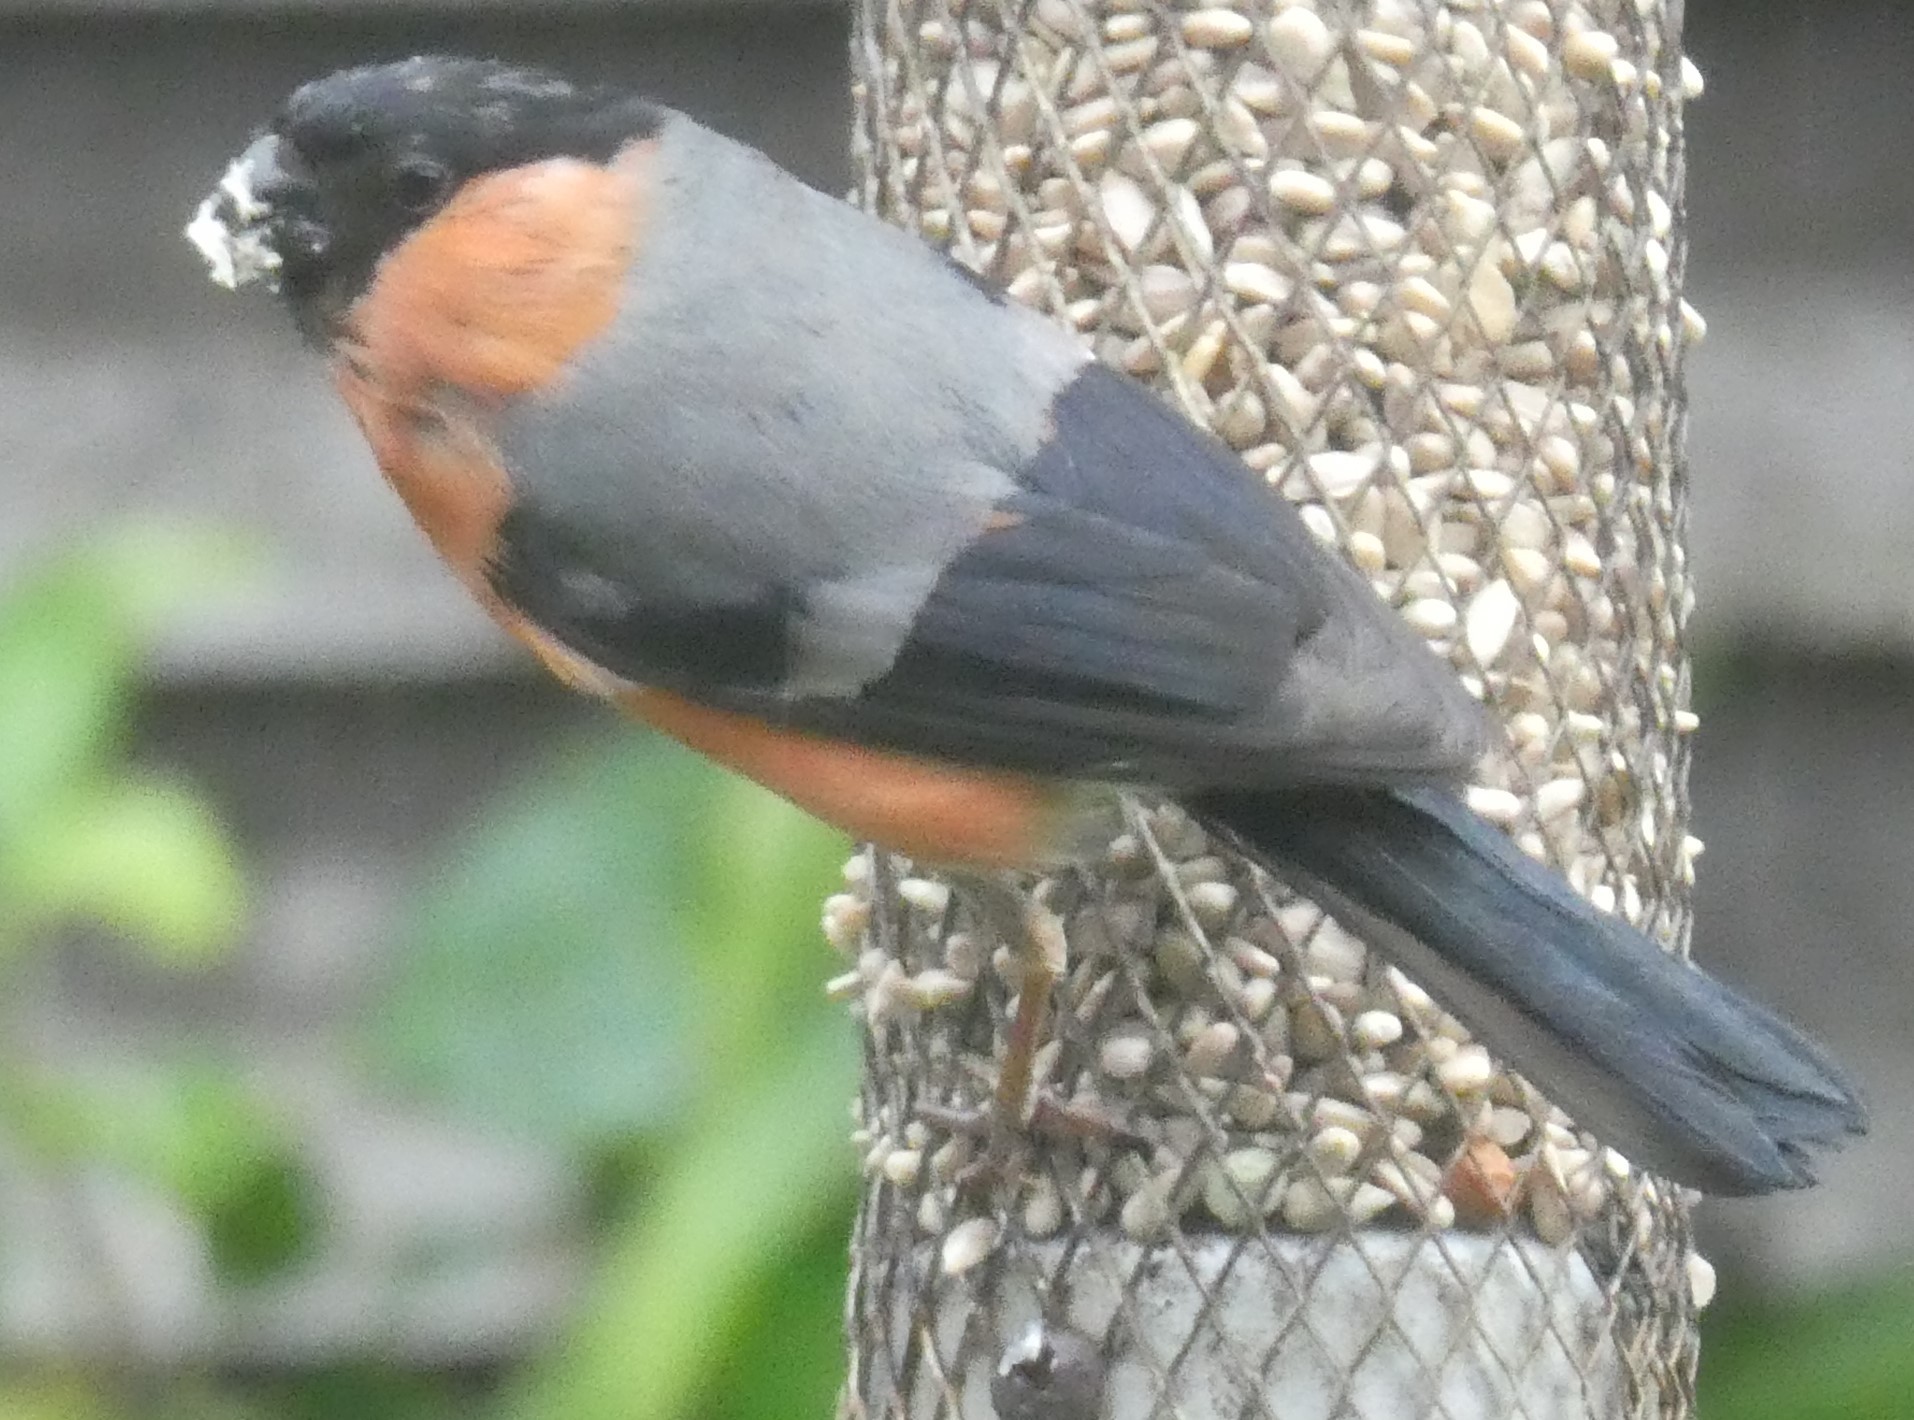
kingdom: Animalia
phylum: Chordata
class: Aves
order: Passeriformes
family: Fringillidae
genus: Pyrrhula
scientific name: Pyrrhula pyrrhula
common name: Eurasian bullfinch
